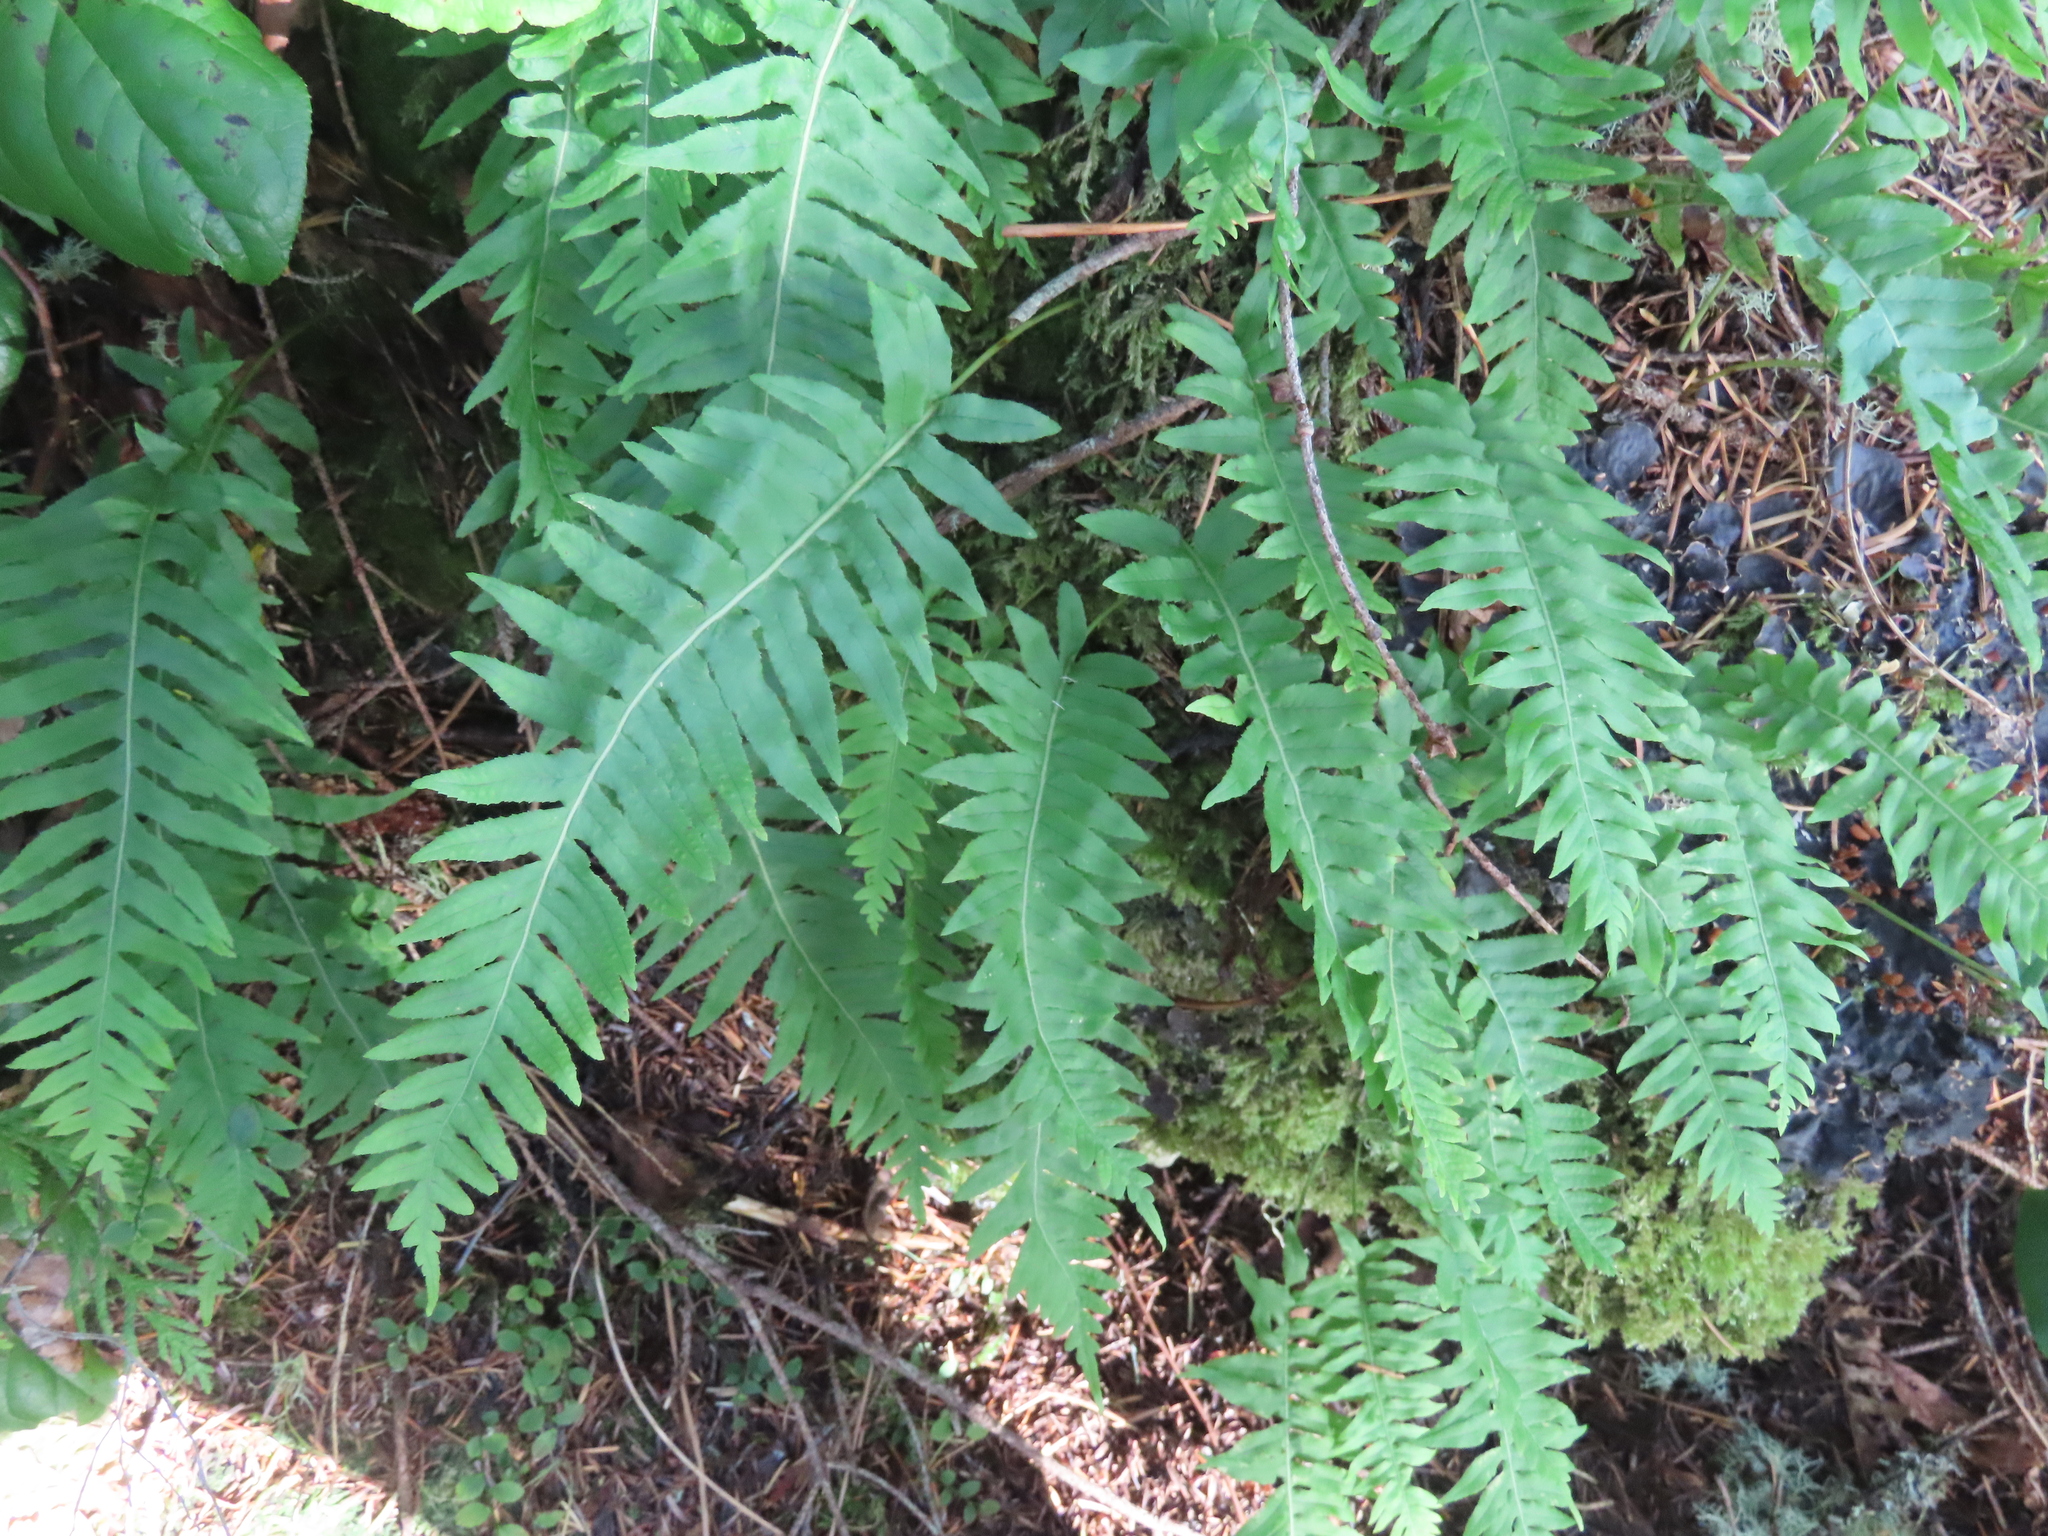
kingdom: Plantae
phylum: Tracheophyta
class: Polypodiopsida
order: Polypodiales
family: Polypodiaceae
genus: Polypodium
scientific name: Polypodium glycyrrhiza
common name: Licorice fern
